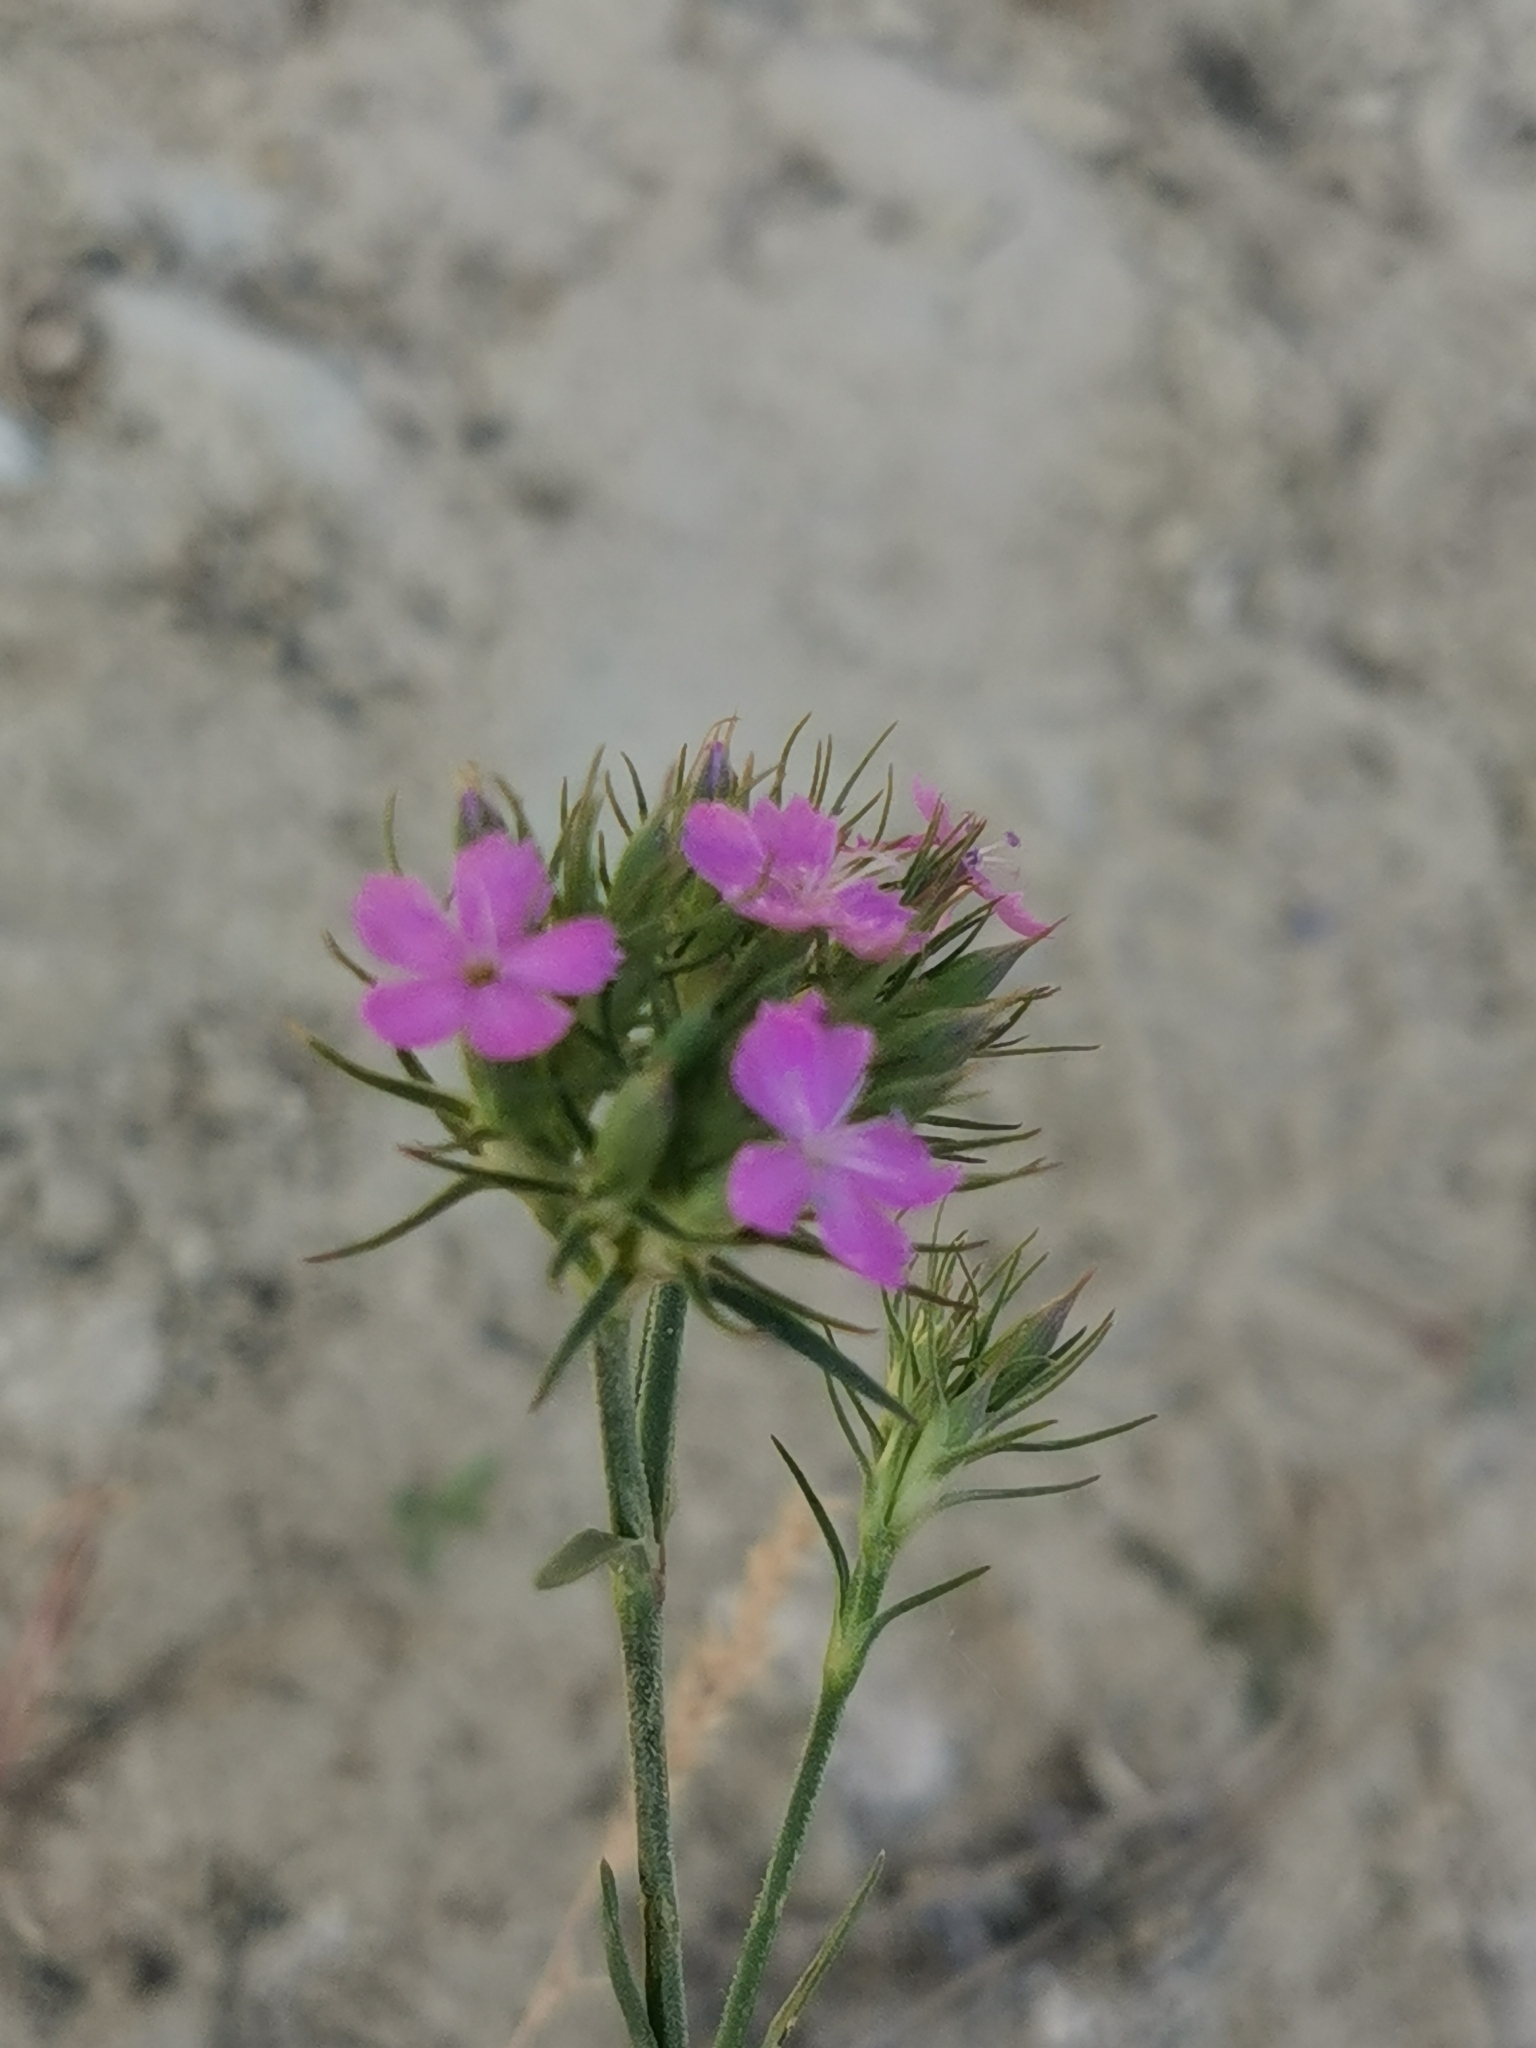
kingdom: Plantae
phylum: Tracheophyta
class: Magnoliopsida
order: Caryophyllales
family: Caryophyllaceae
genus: Dianthus
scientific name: Dianthus pseudarmeria
